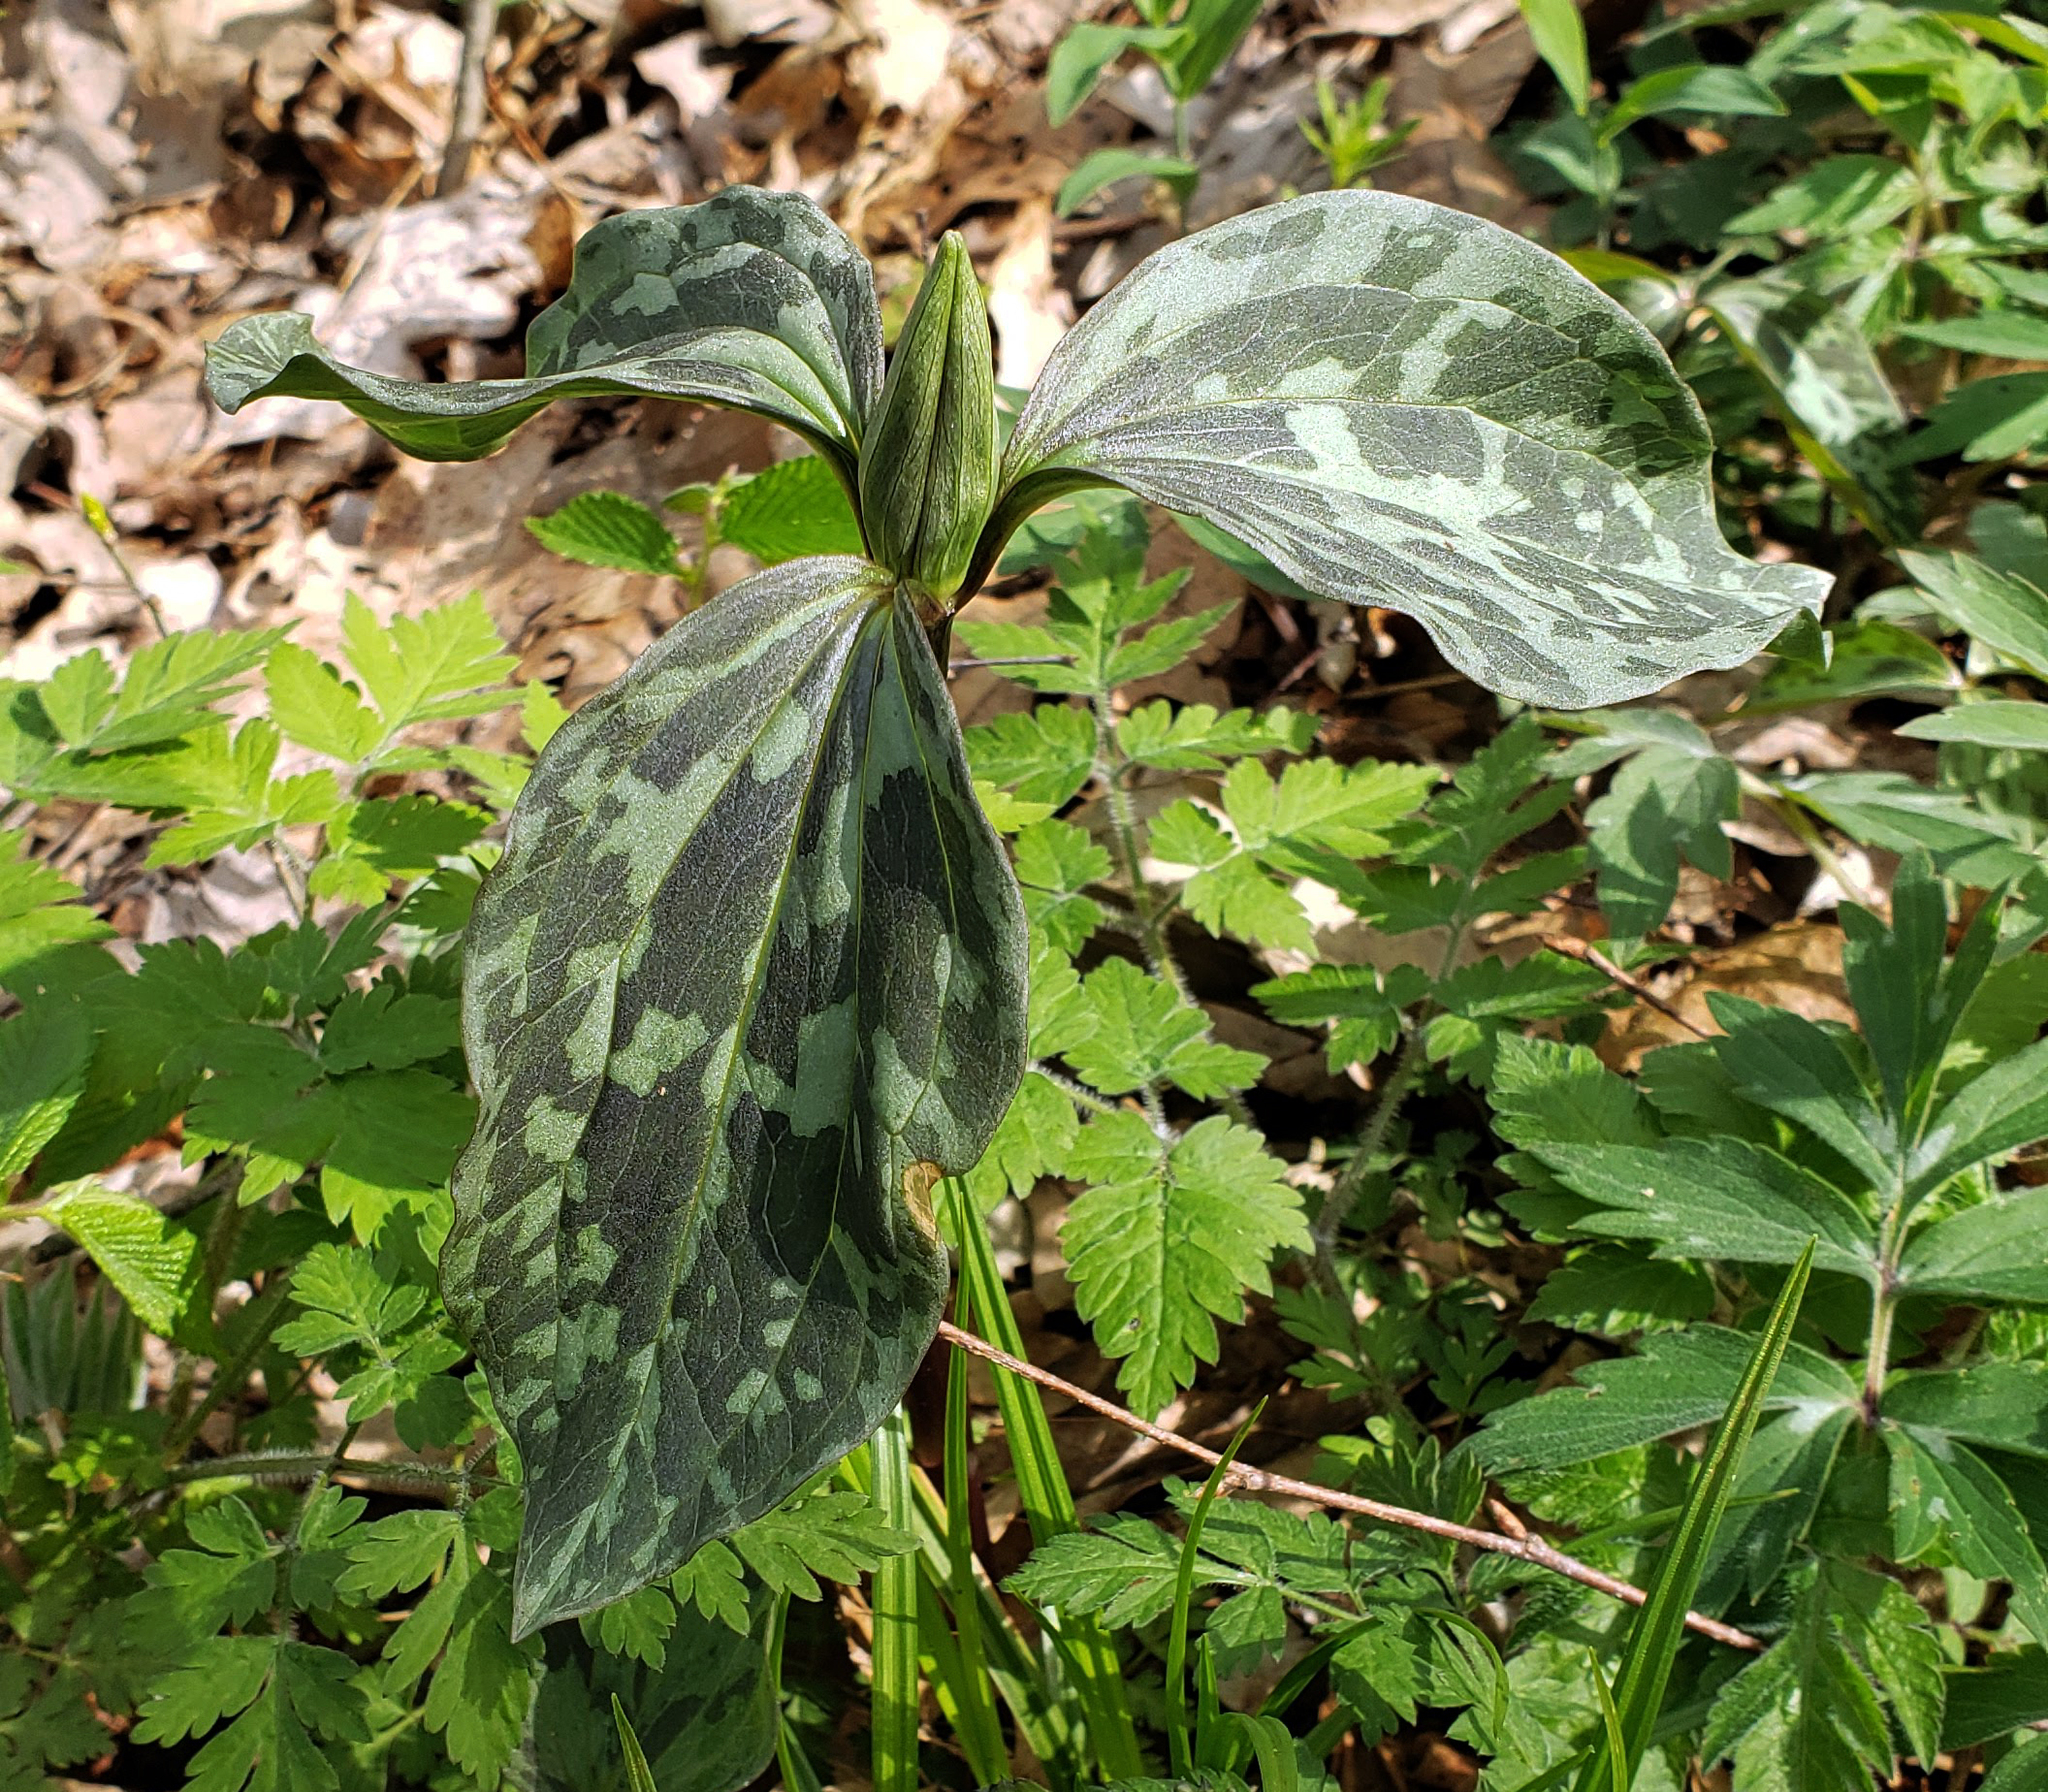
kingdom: Plantae
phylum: Tracheophyta
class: Liliopsida
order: Liliales
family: Melanthiaceae
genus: Trillium
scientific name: Trillium recurvatum
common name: Bloody butcher
